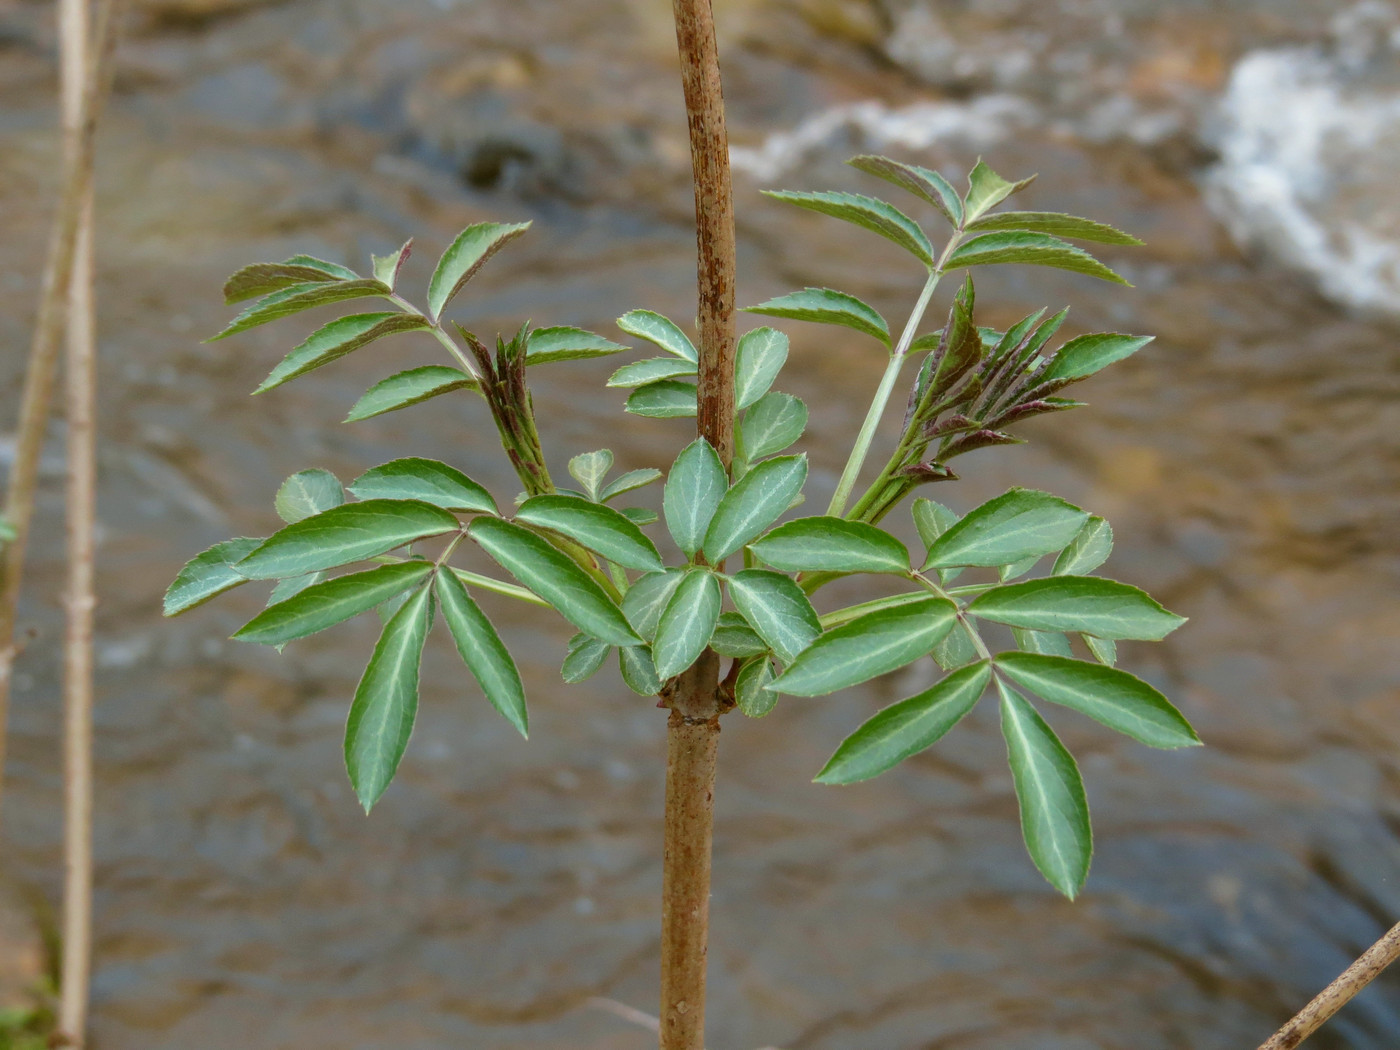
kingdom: Plantae
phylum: Tracheophyta
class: Magnoliopsida
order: Dipsacales
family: Viburnaceae
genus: Sambucus
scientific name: Sambucus canadensis
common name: American elder
